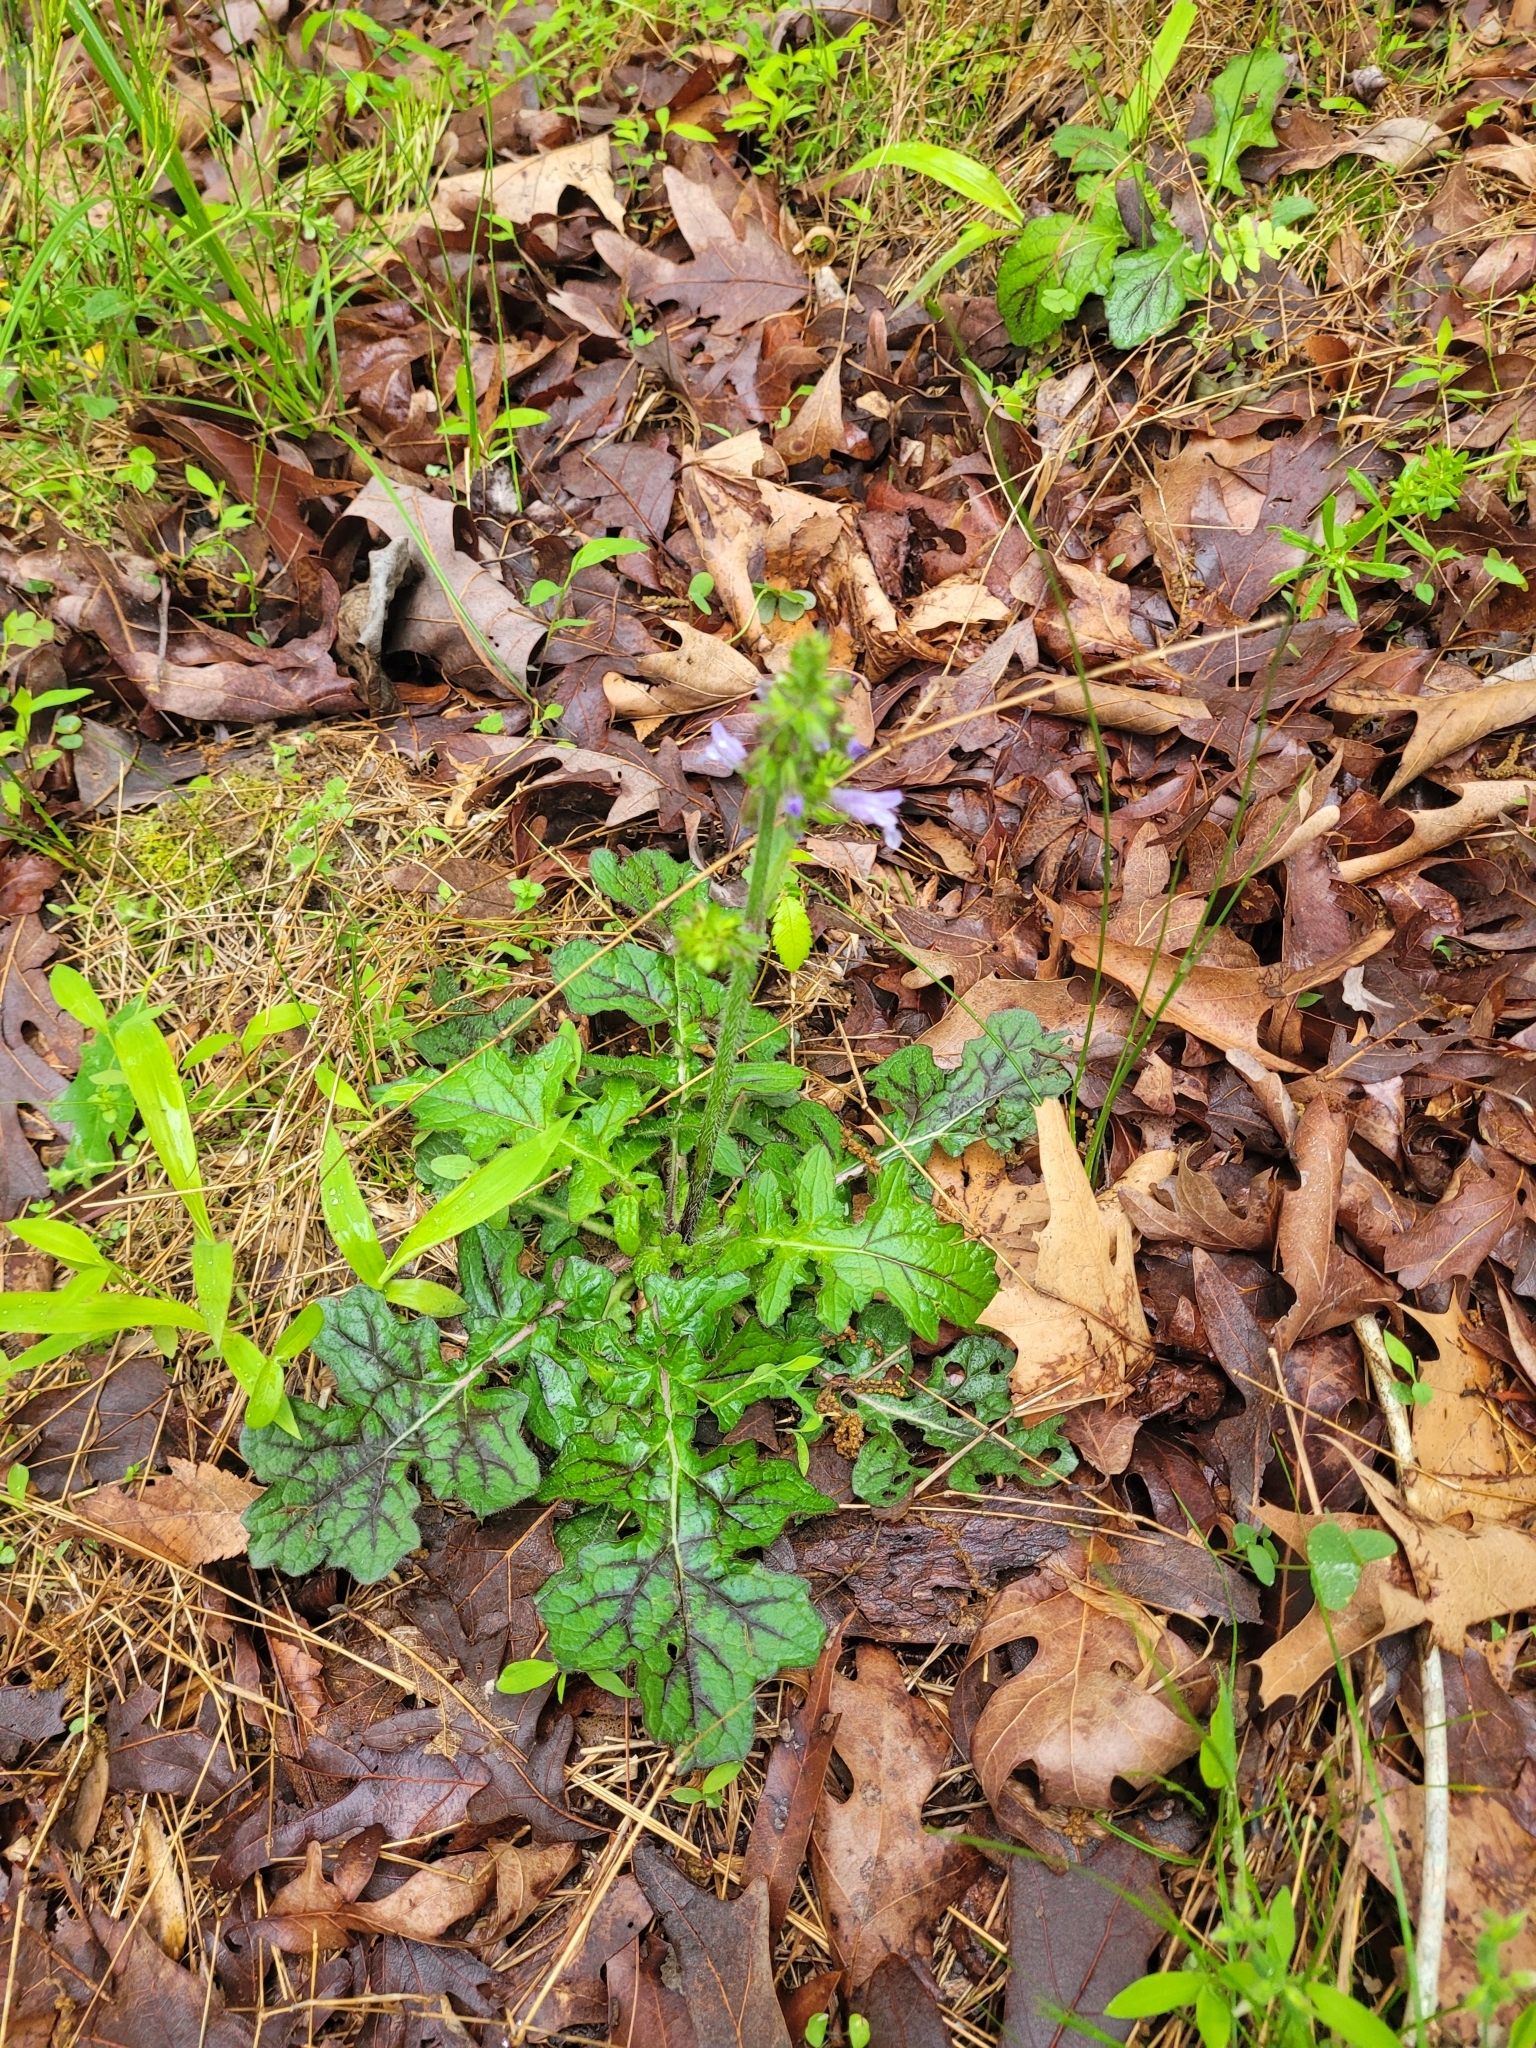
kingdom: Plantae
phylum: Tracheophyta
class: Magnoliopsida
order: Lamiales
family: Lamiaceae
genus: Salvia
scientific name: Salvia lyrata
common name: Cancerweed
